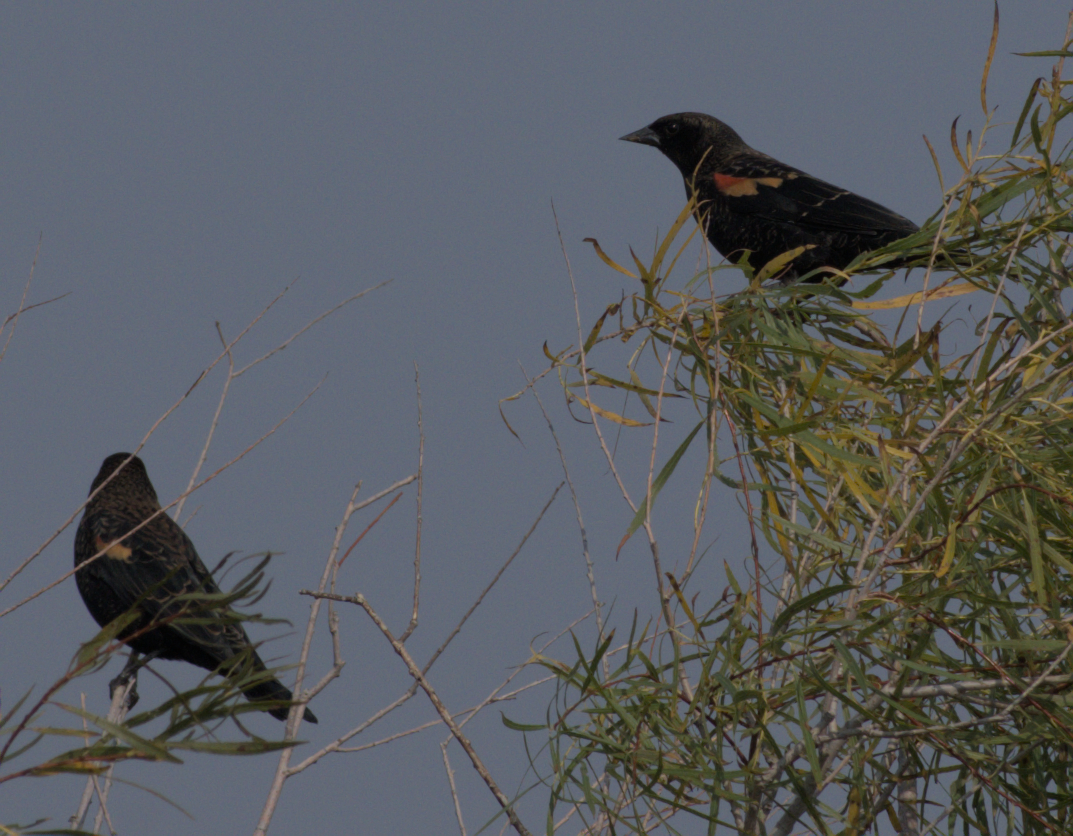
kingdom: Animalia
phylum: Chordata
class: Aves
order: Passeriformes
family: Icteridae
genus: Agelaius
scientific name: Agelaius phoeniceus
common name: Red-winged blackbird
